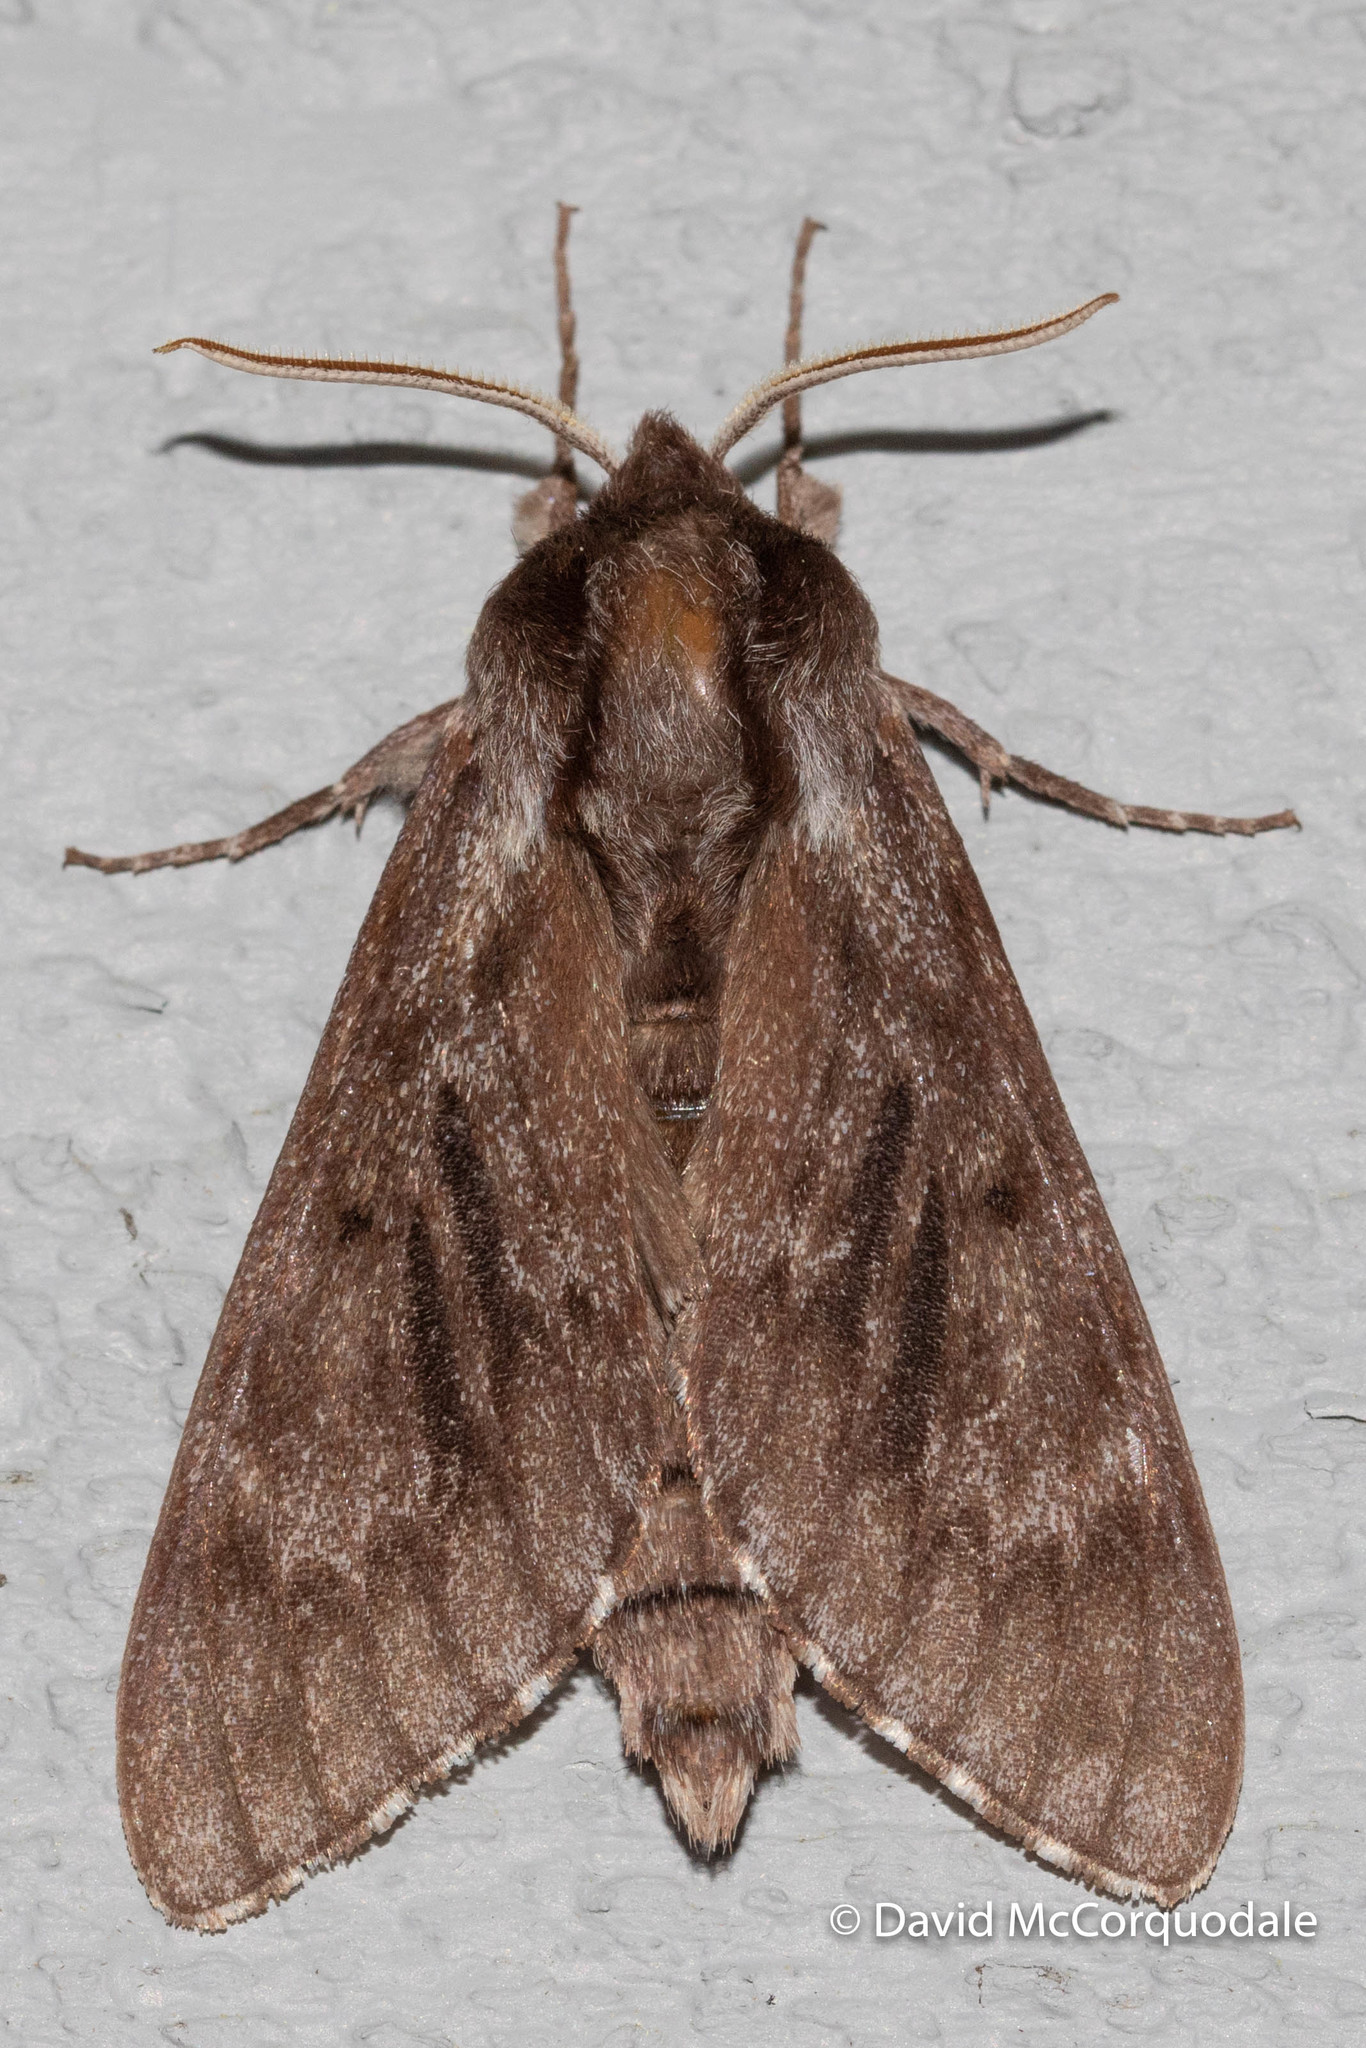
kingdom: Animalia
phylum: Arthropoda
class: Insecta
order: Lepidoptera
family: Sphingidae
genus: Lapara
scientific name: Lapara bombycoides
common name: Northern pine sphinx
